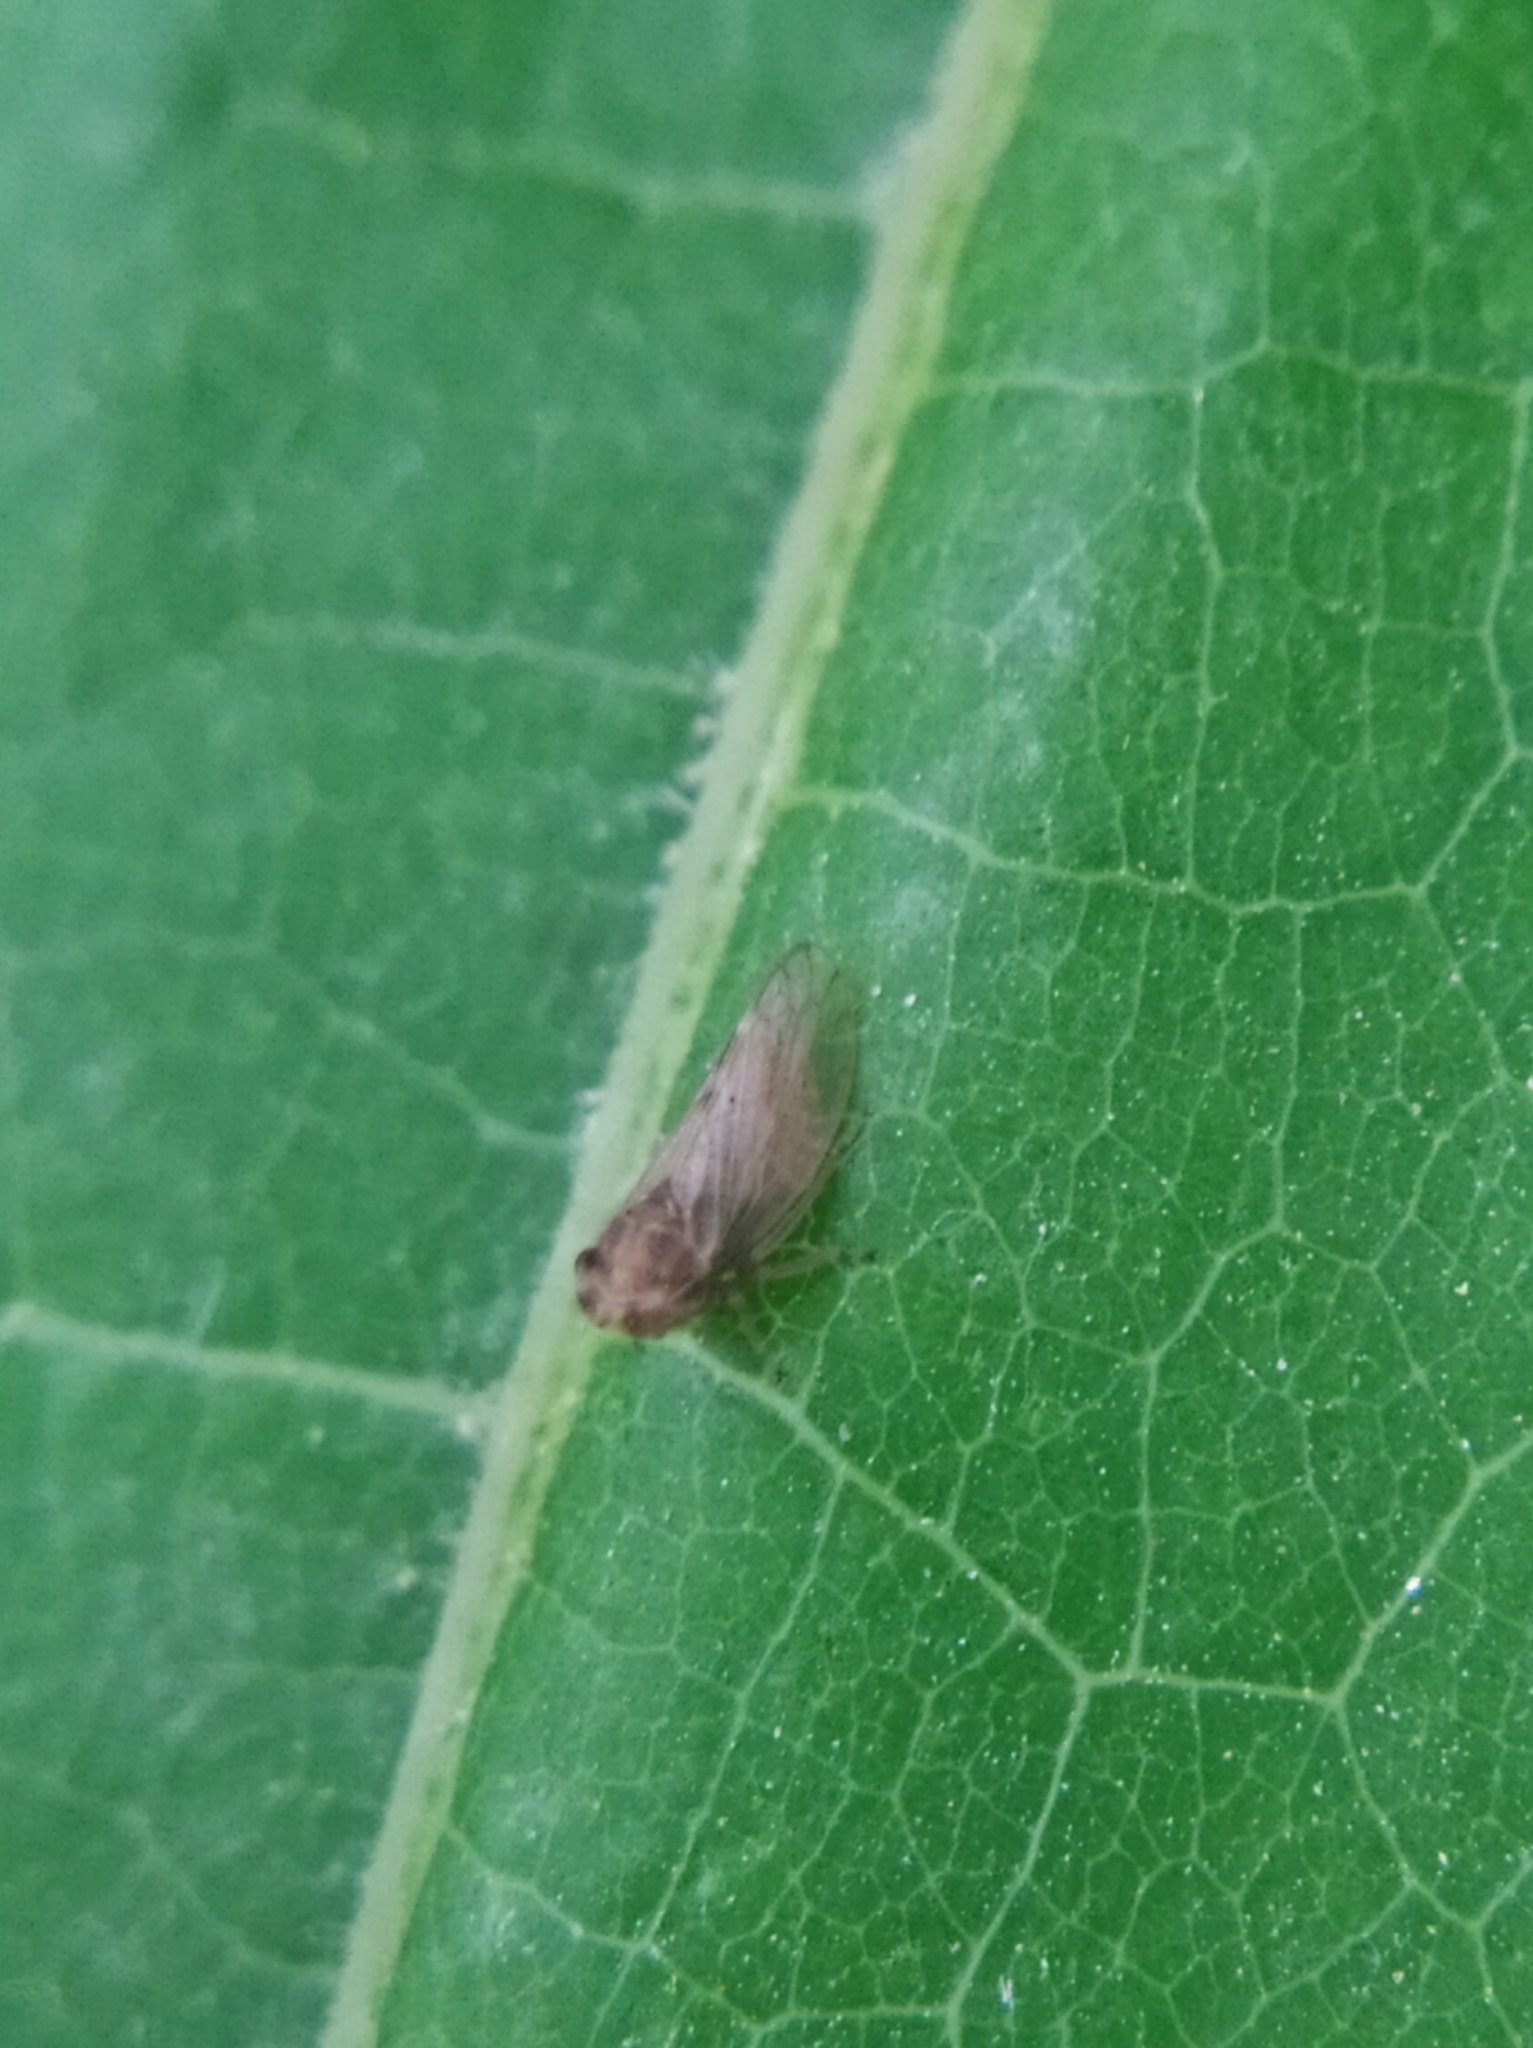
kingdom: Animalia
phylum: Arthropoda
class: Insecta
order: Hemiptera
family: Cicadellidae
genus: Megophthalmus
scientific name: Megophthalmus scanicus
